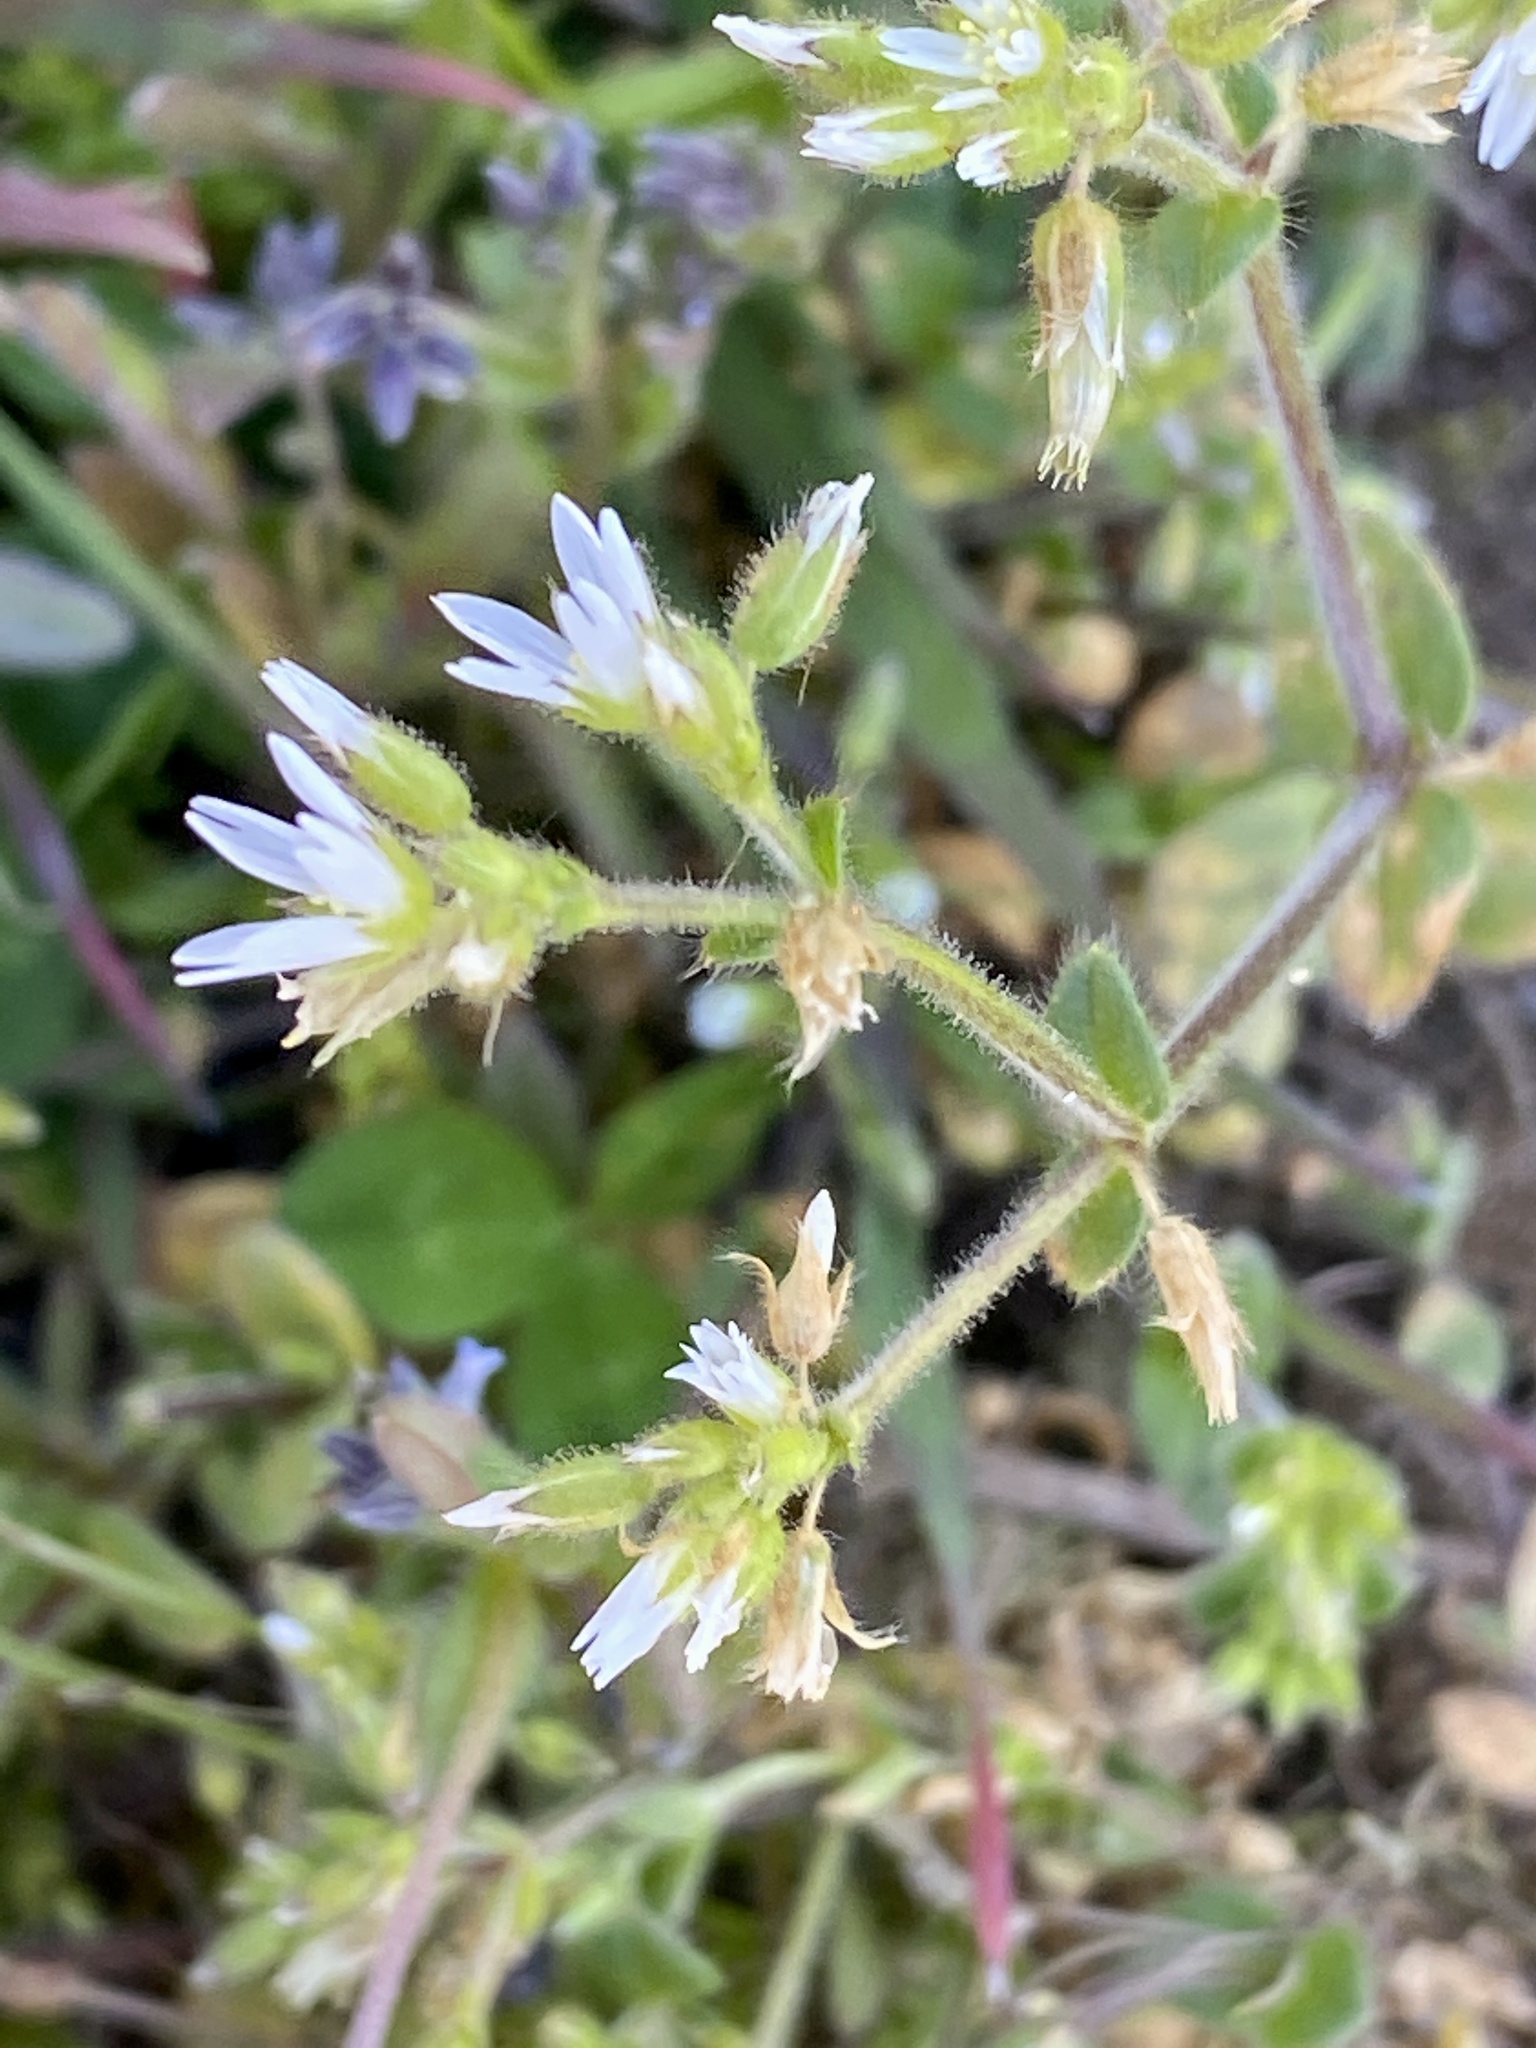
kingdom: Plantae
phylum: Tracheophyta
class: Magnoliopsida
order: Caryophyllales
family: Caryophyllaceae
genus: Cerastium
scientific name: Cerastium glomeratum
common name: Sticky chickweed
